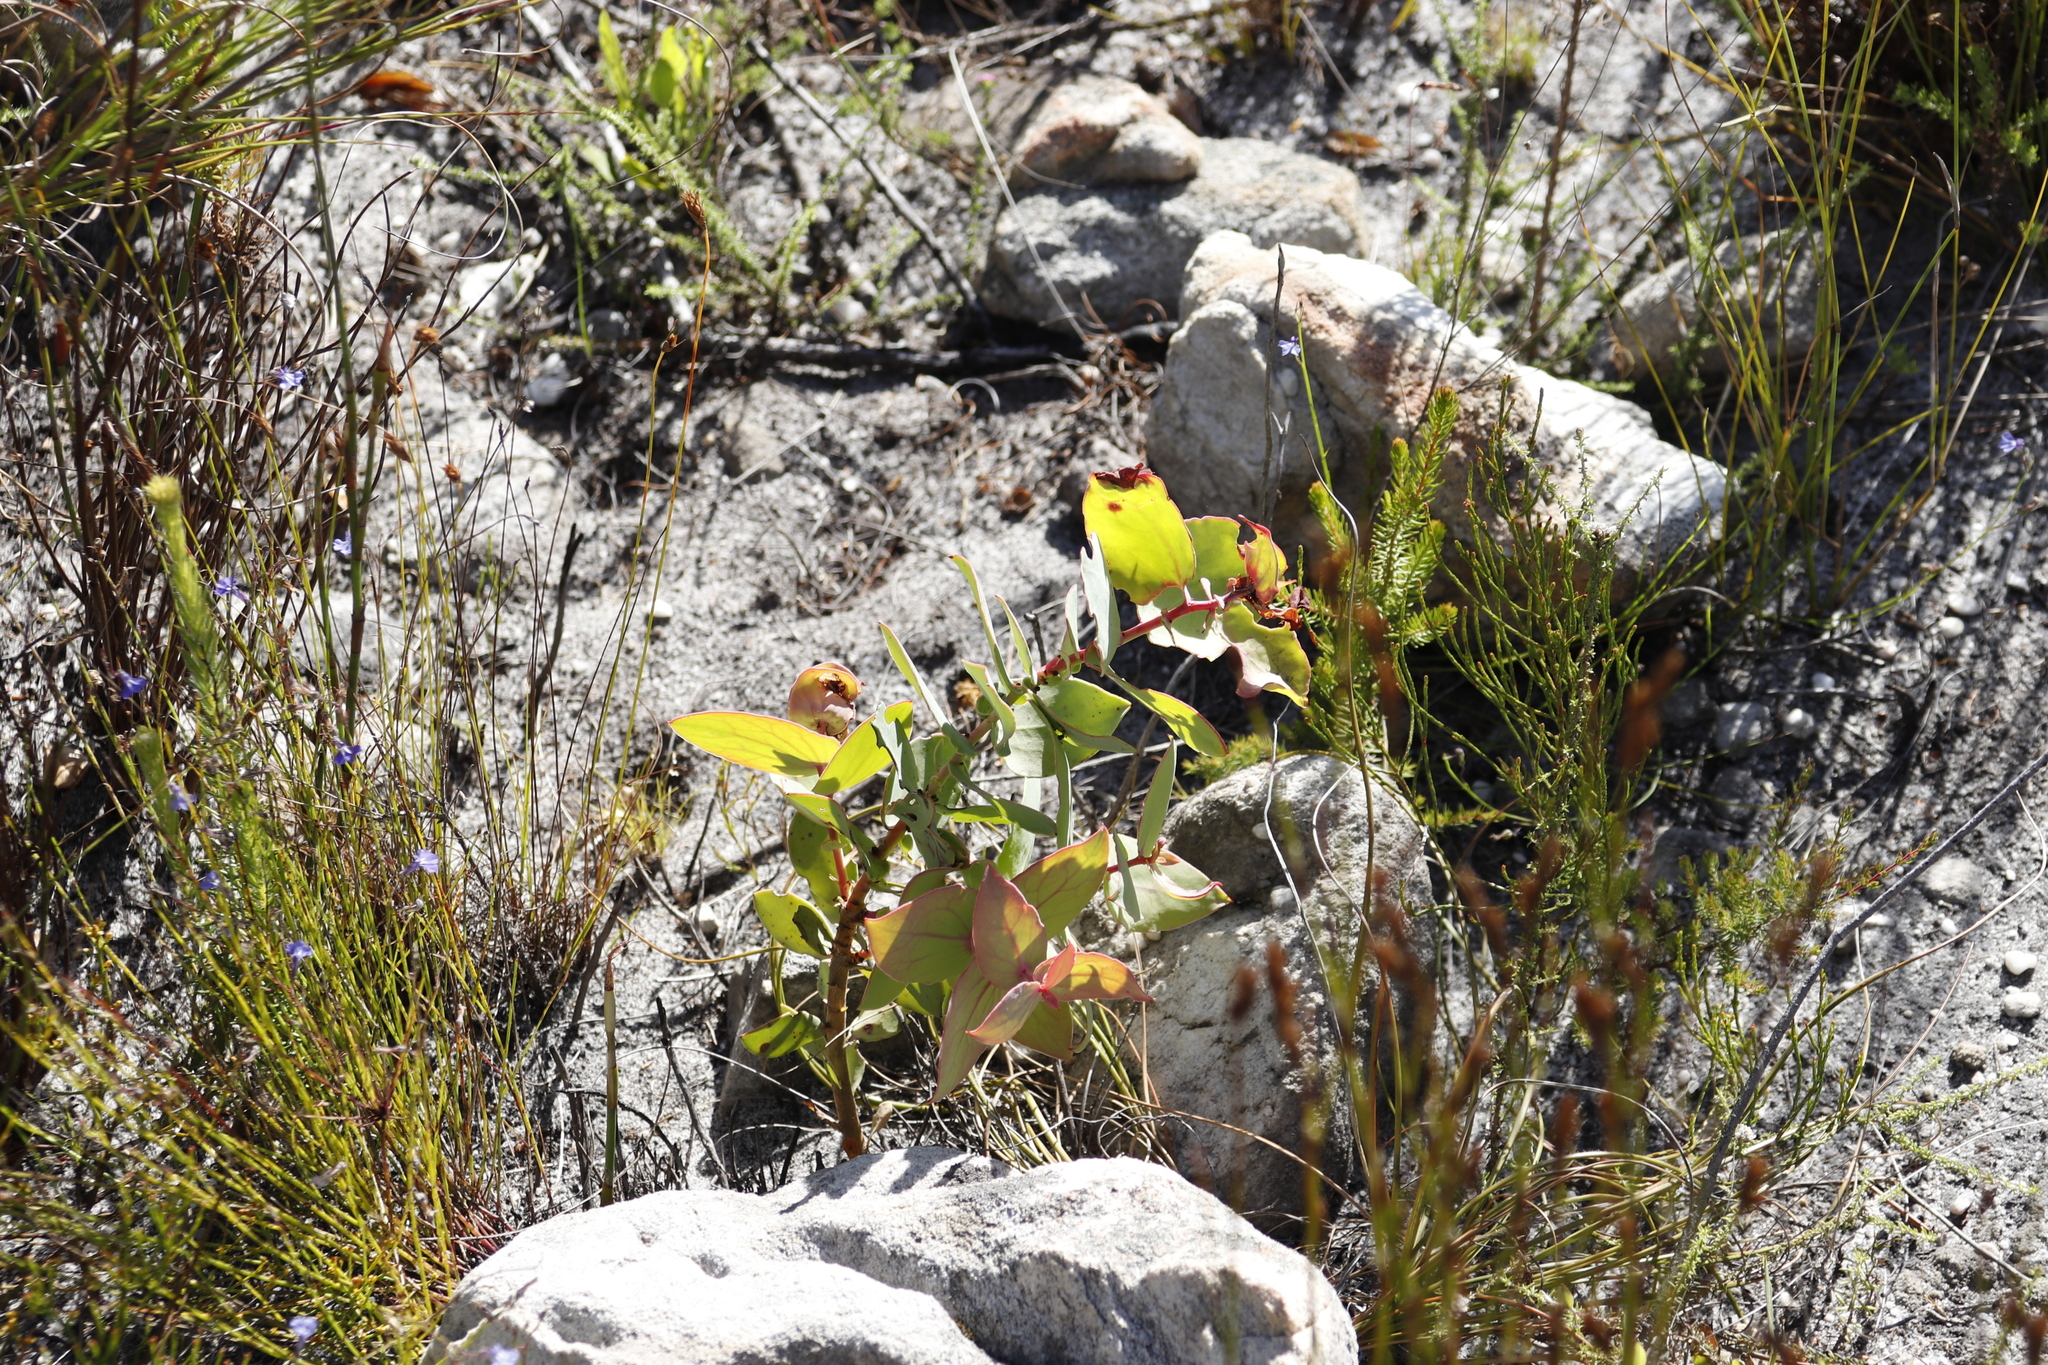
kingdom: Plantae
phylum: Tracheophyta
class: Magnoliopsida
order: Proteales
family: Proteaceae
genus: Protea
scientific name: Protea amplexicaulis
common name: Clasping-leaf sugarbush
